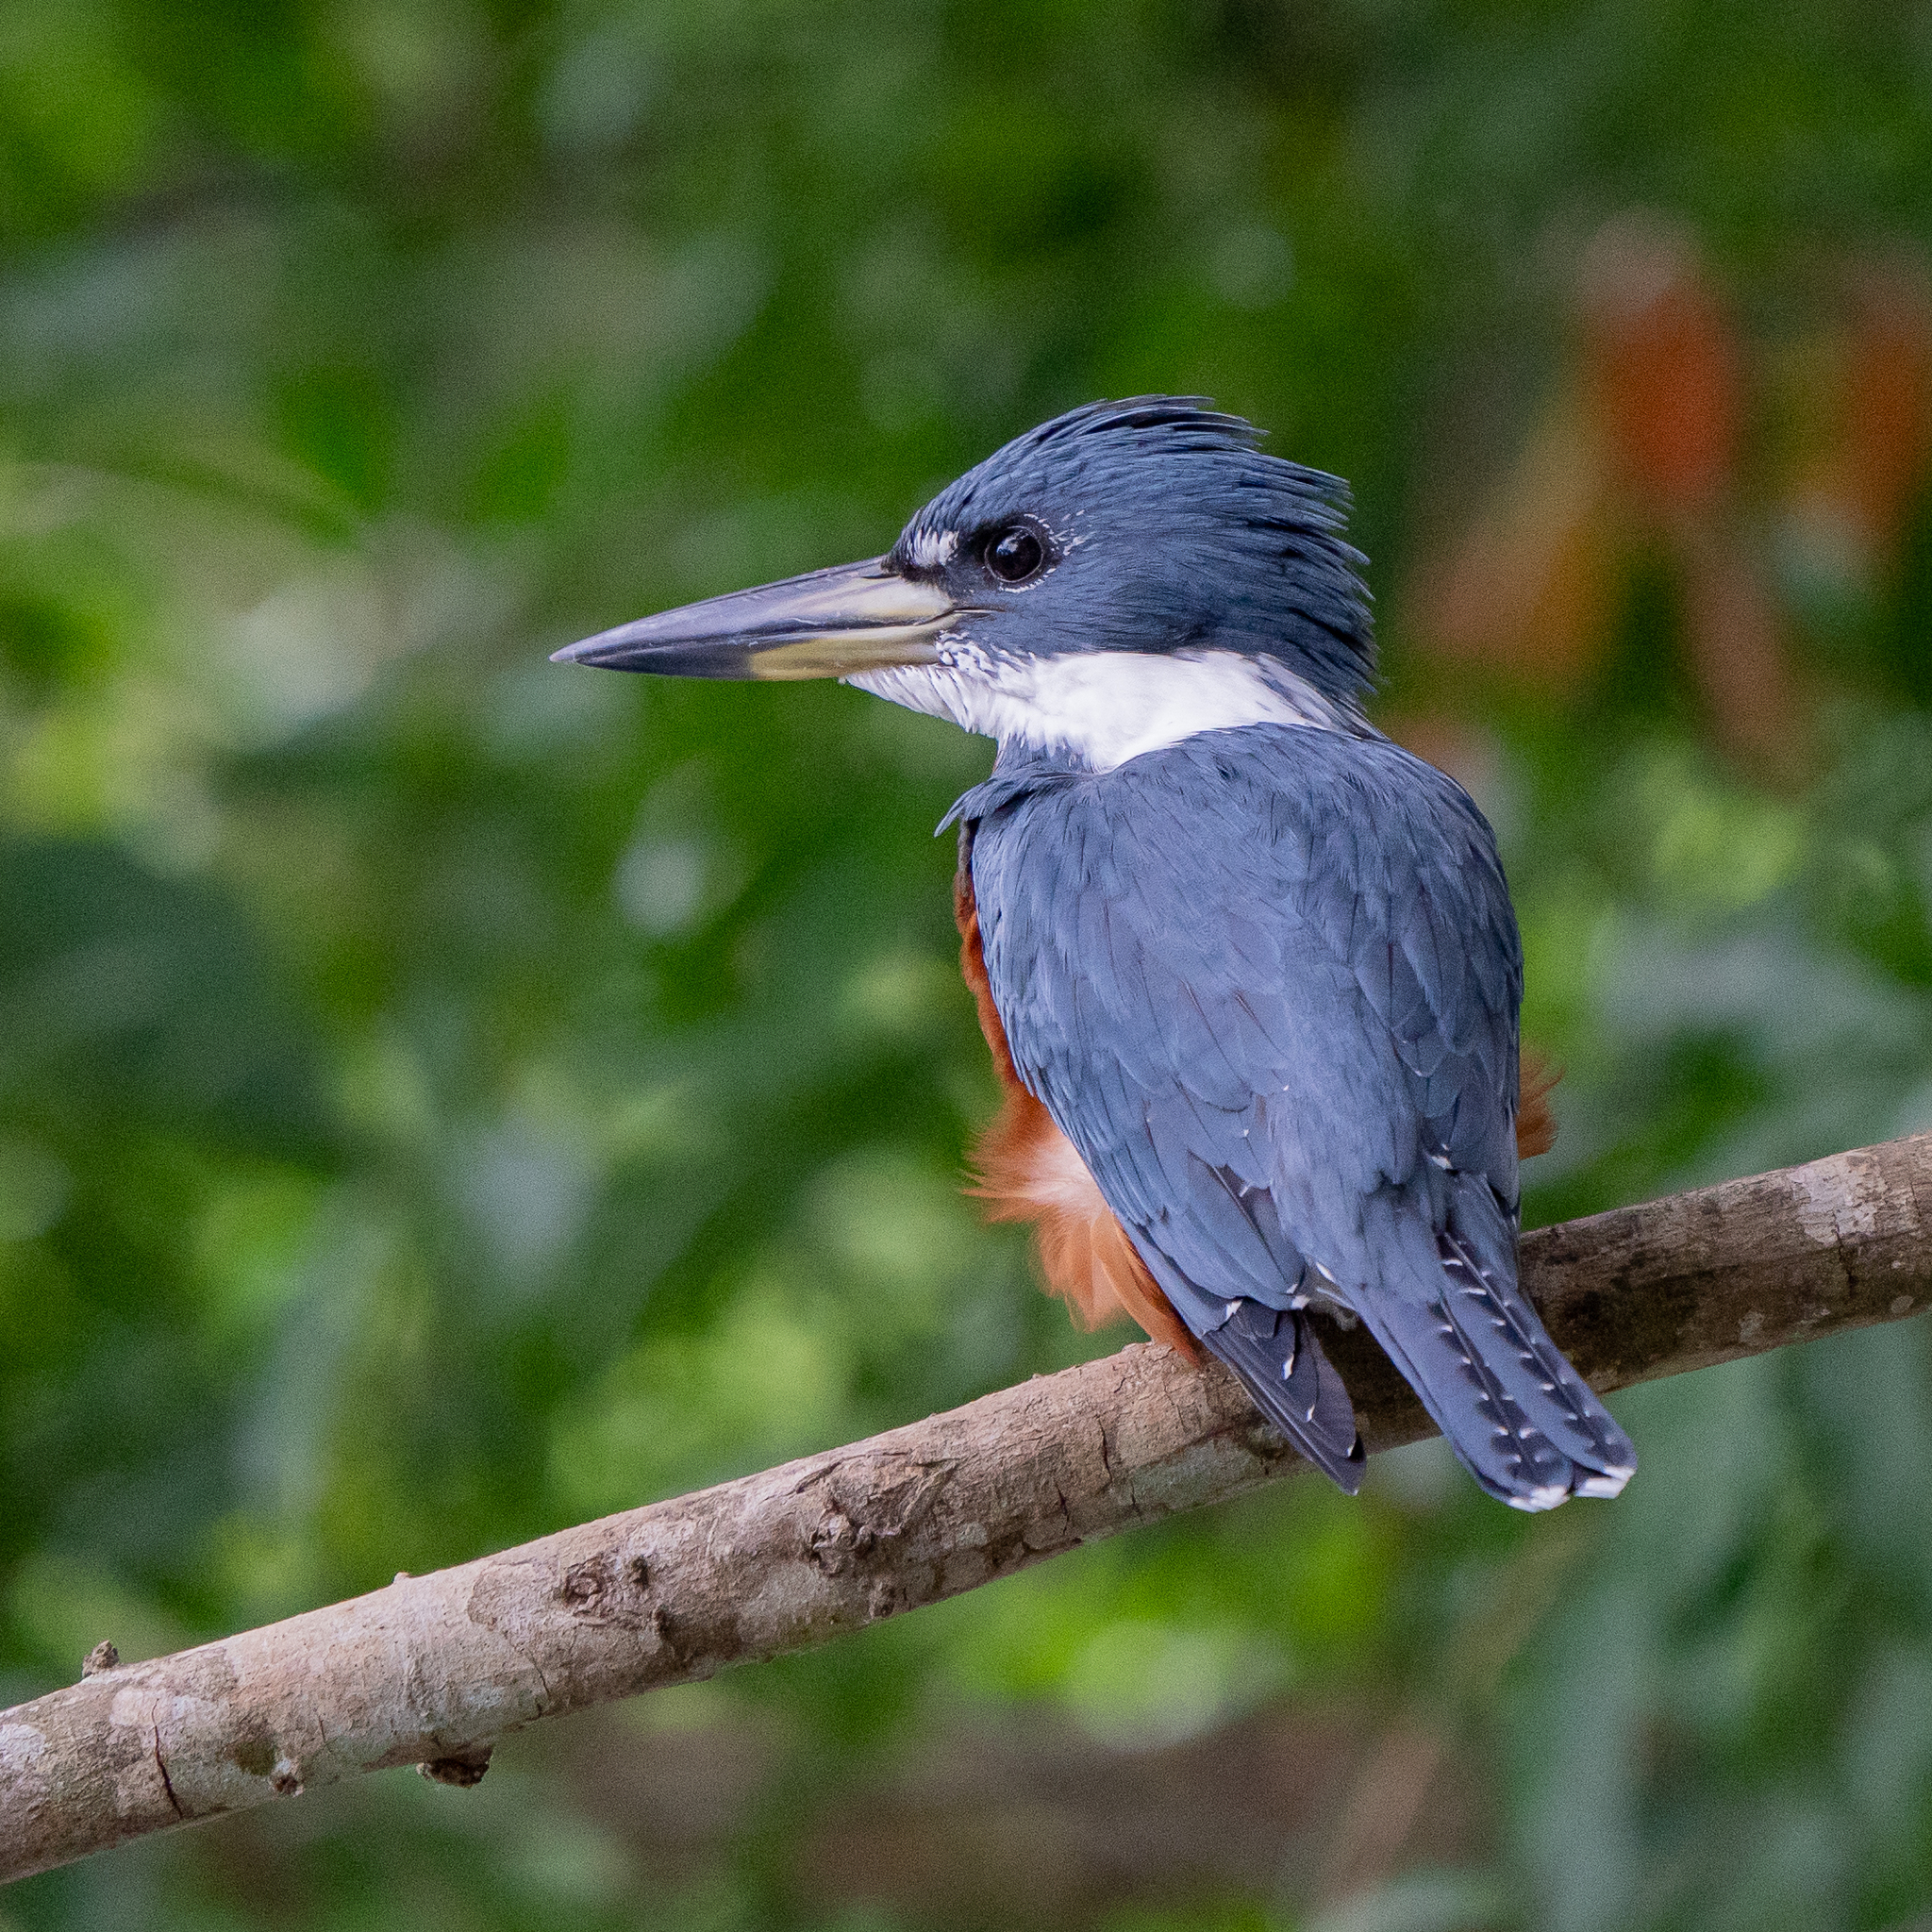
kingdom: Animalia
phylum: Chordata
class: Aves
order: Coraciiformes
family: Alcedinidae
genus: Megaceryle
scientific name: Megaceryle torquata
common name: Ringed kingfisher
